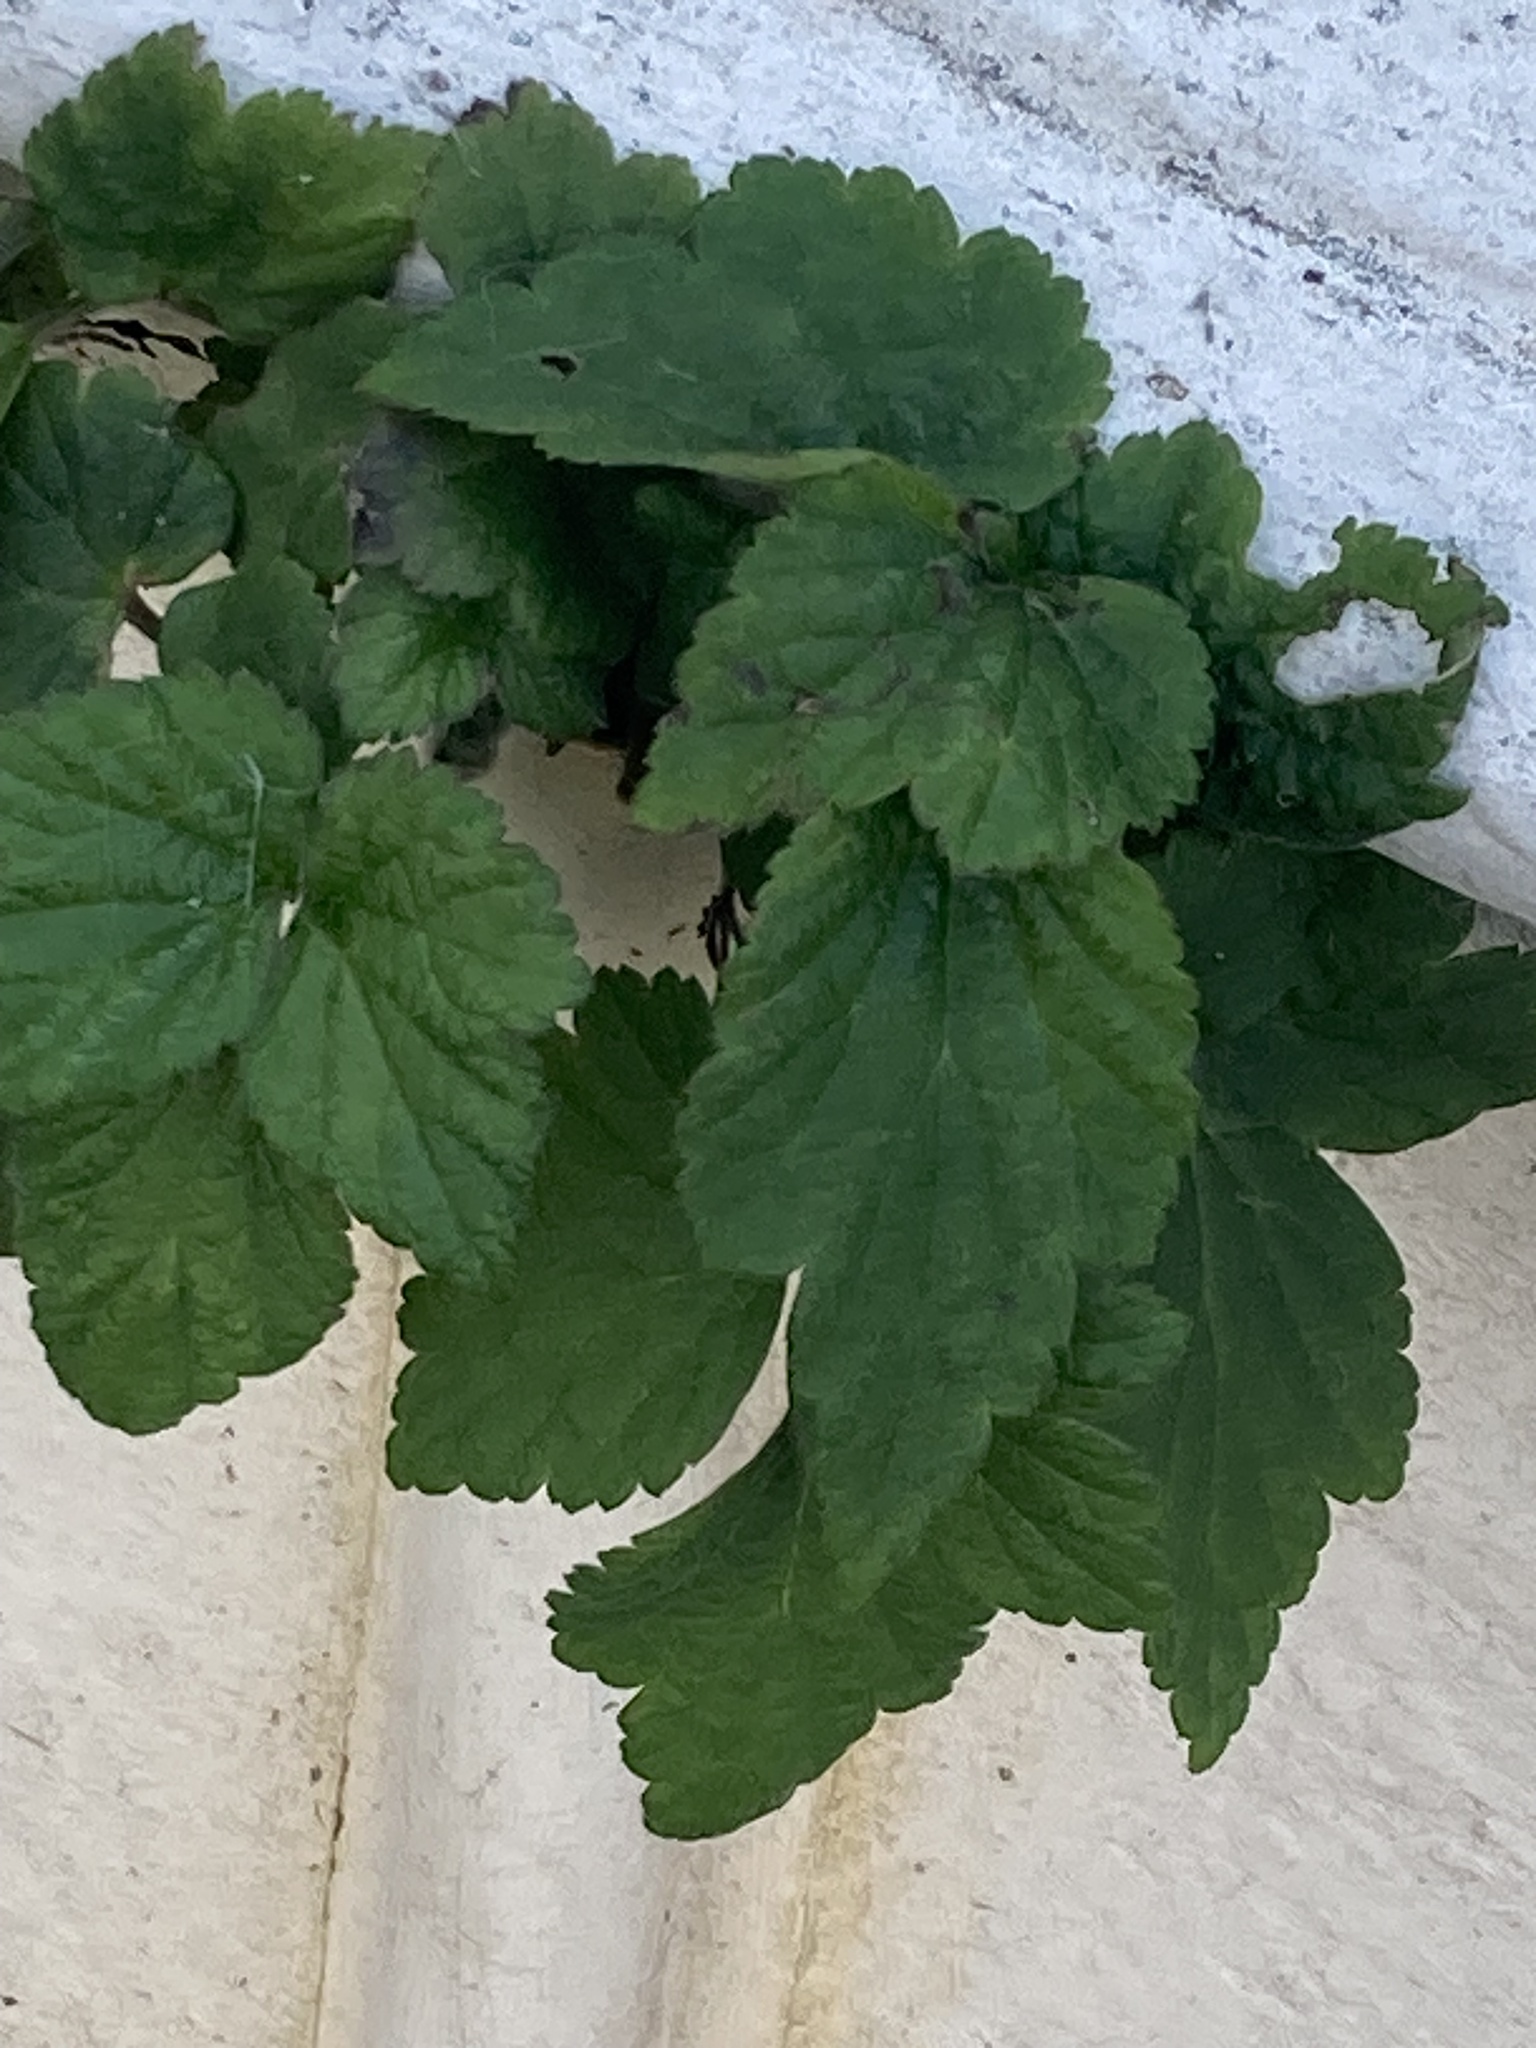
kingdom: Plantae
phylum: Tracheophyta
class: Magnoliopsida
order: Ranunculales
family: Ranunculaceae
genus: Eriocapitella
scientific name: Eriocapitella hupehensis
